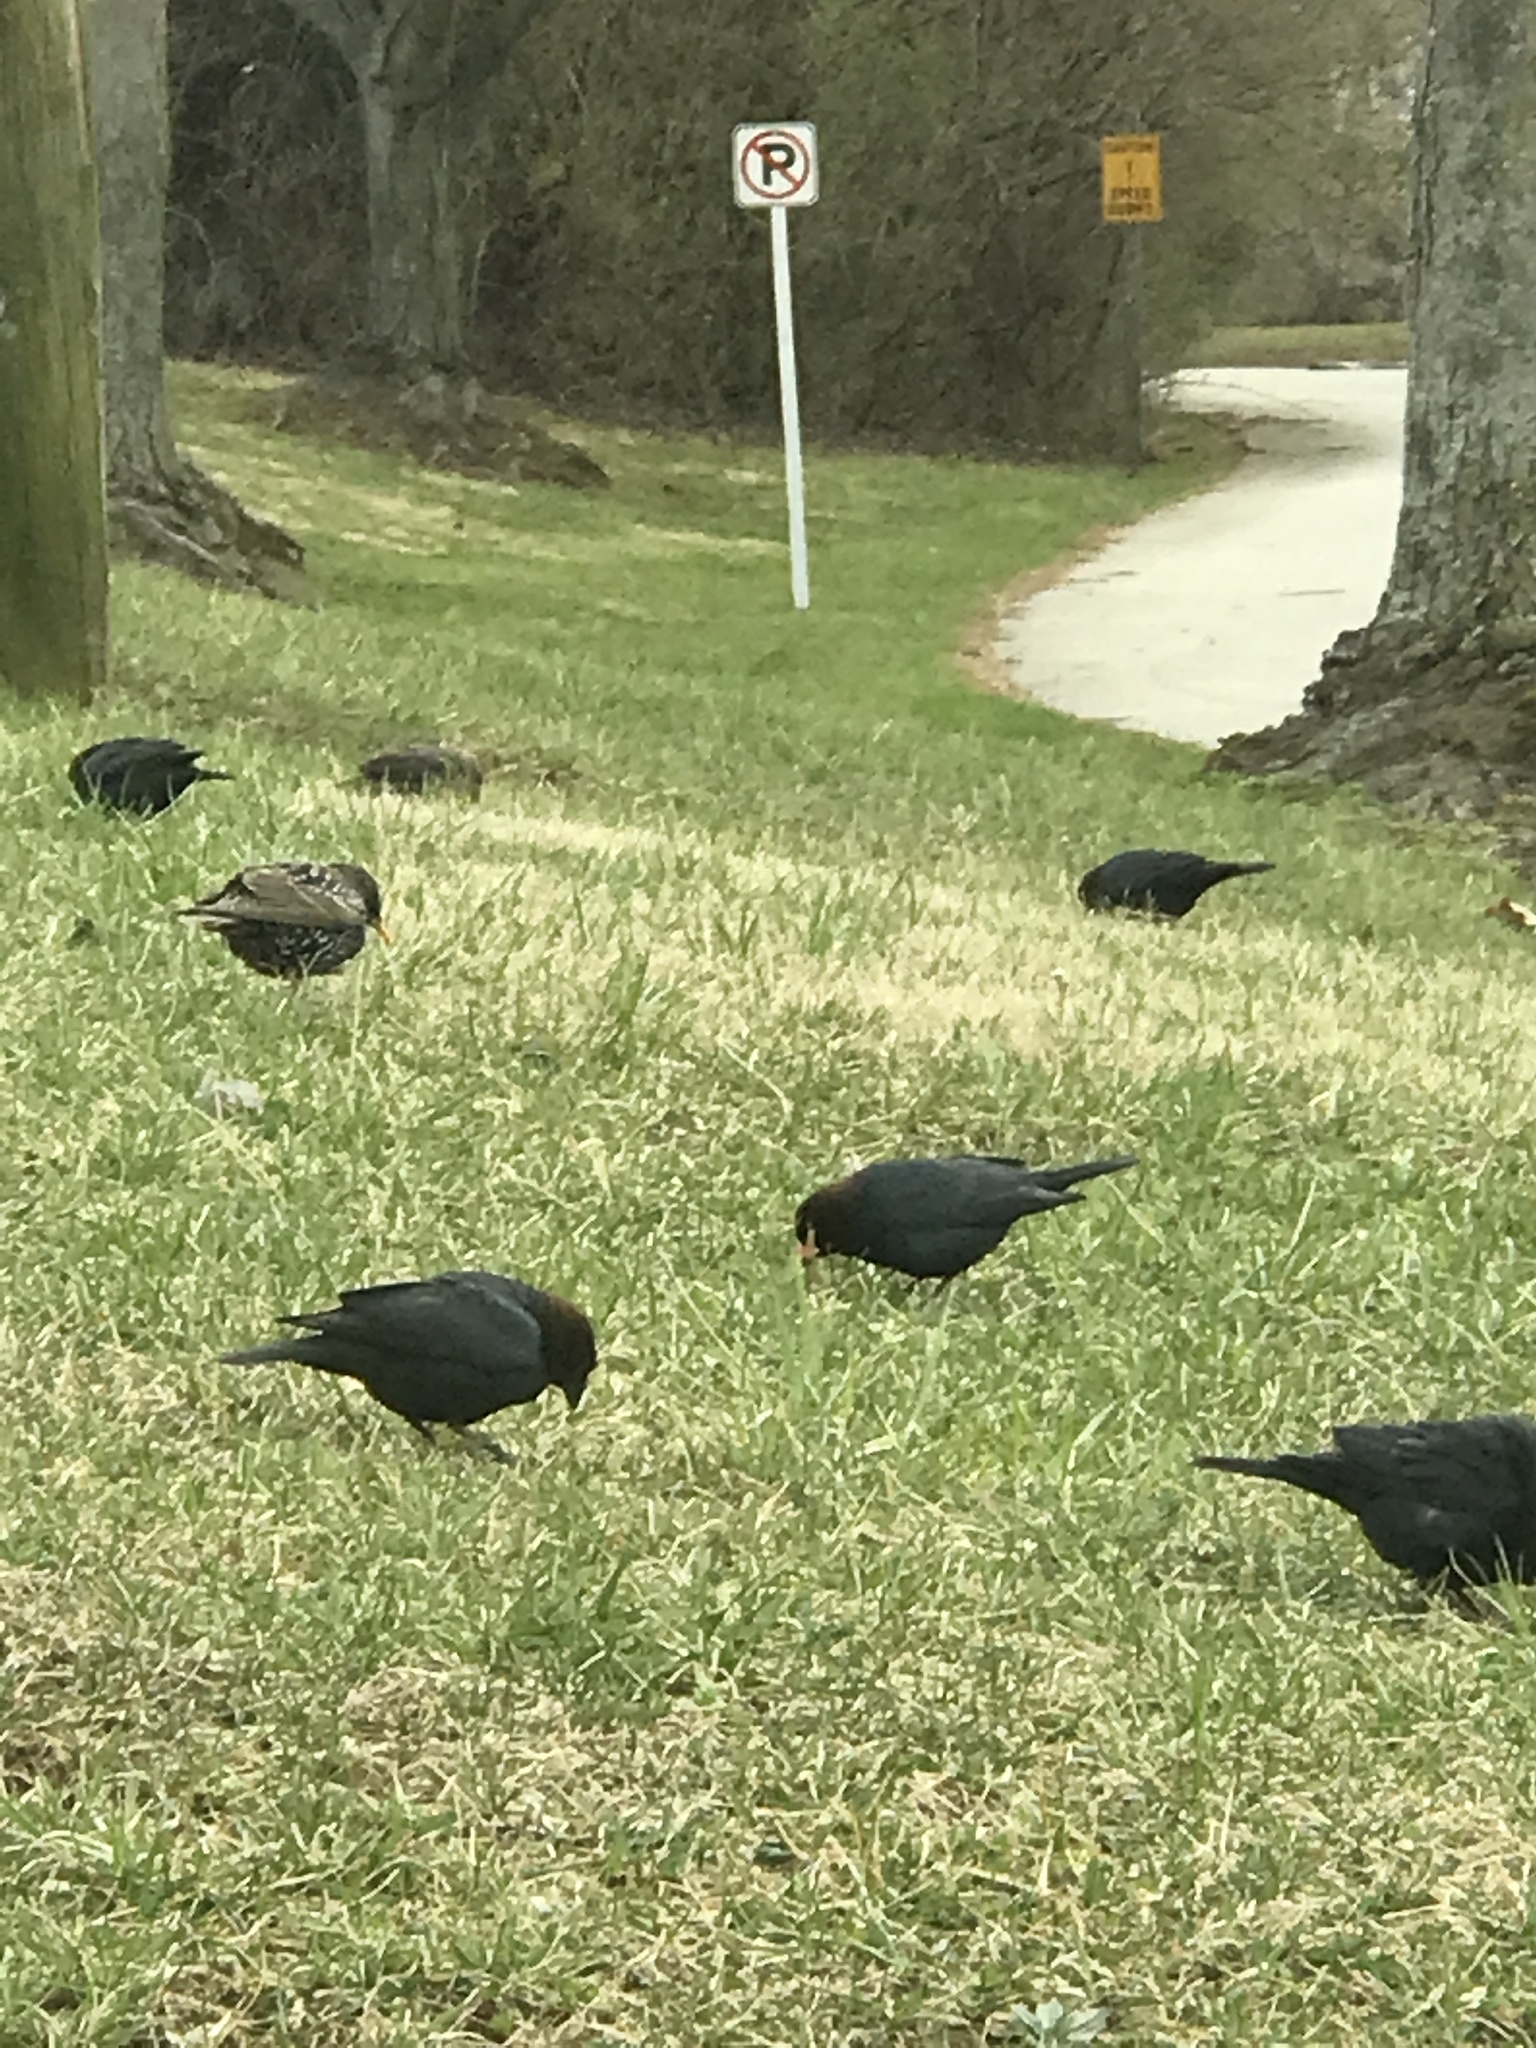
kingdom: Animalia
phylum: Chordata
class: Aves
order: Passeriformes
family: Icteridae
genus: Molothrus
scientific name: Molothrus ater
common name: Brown-headed cowbird
